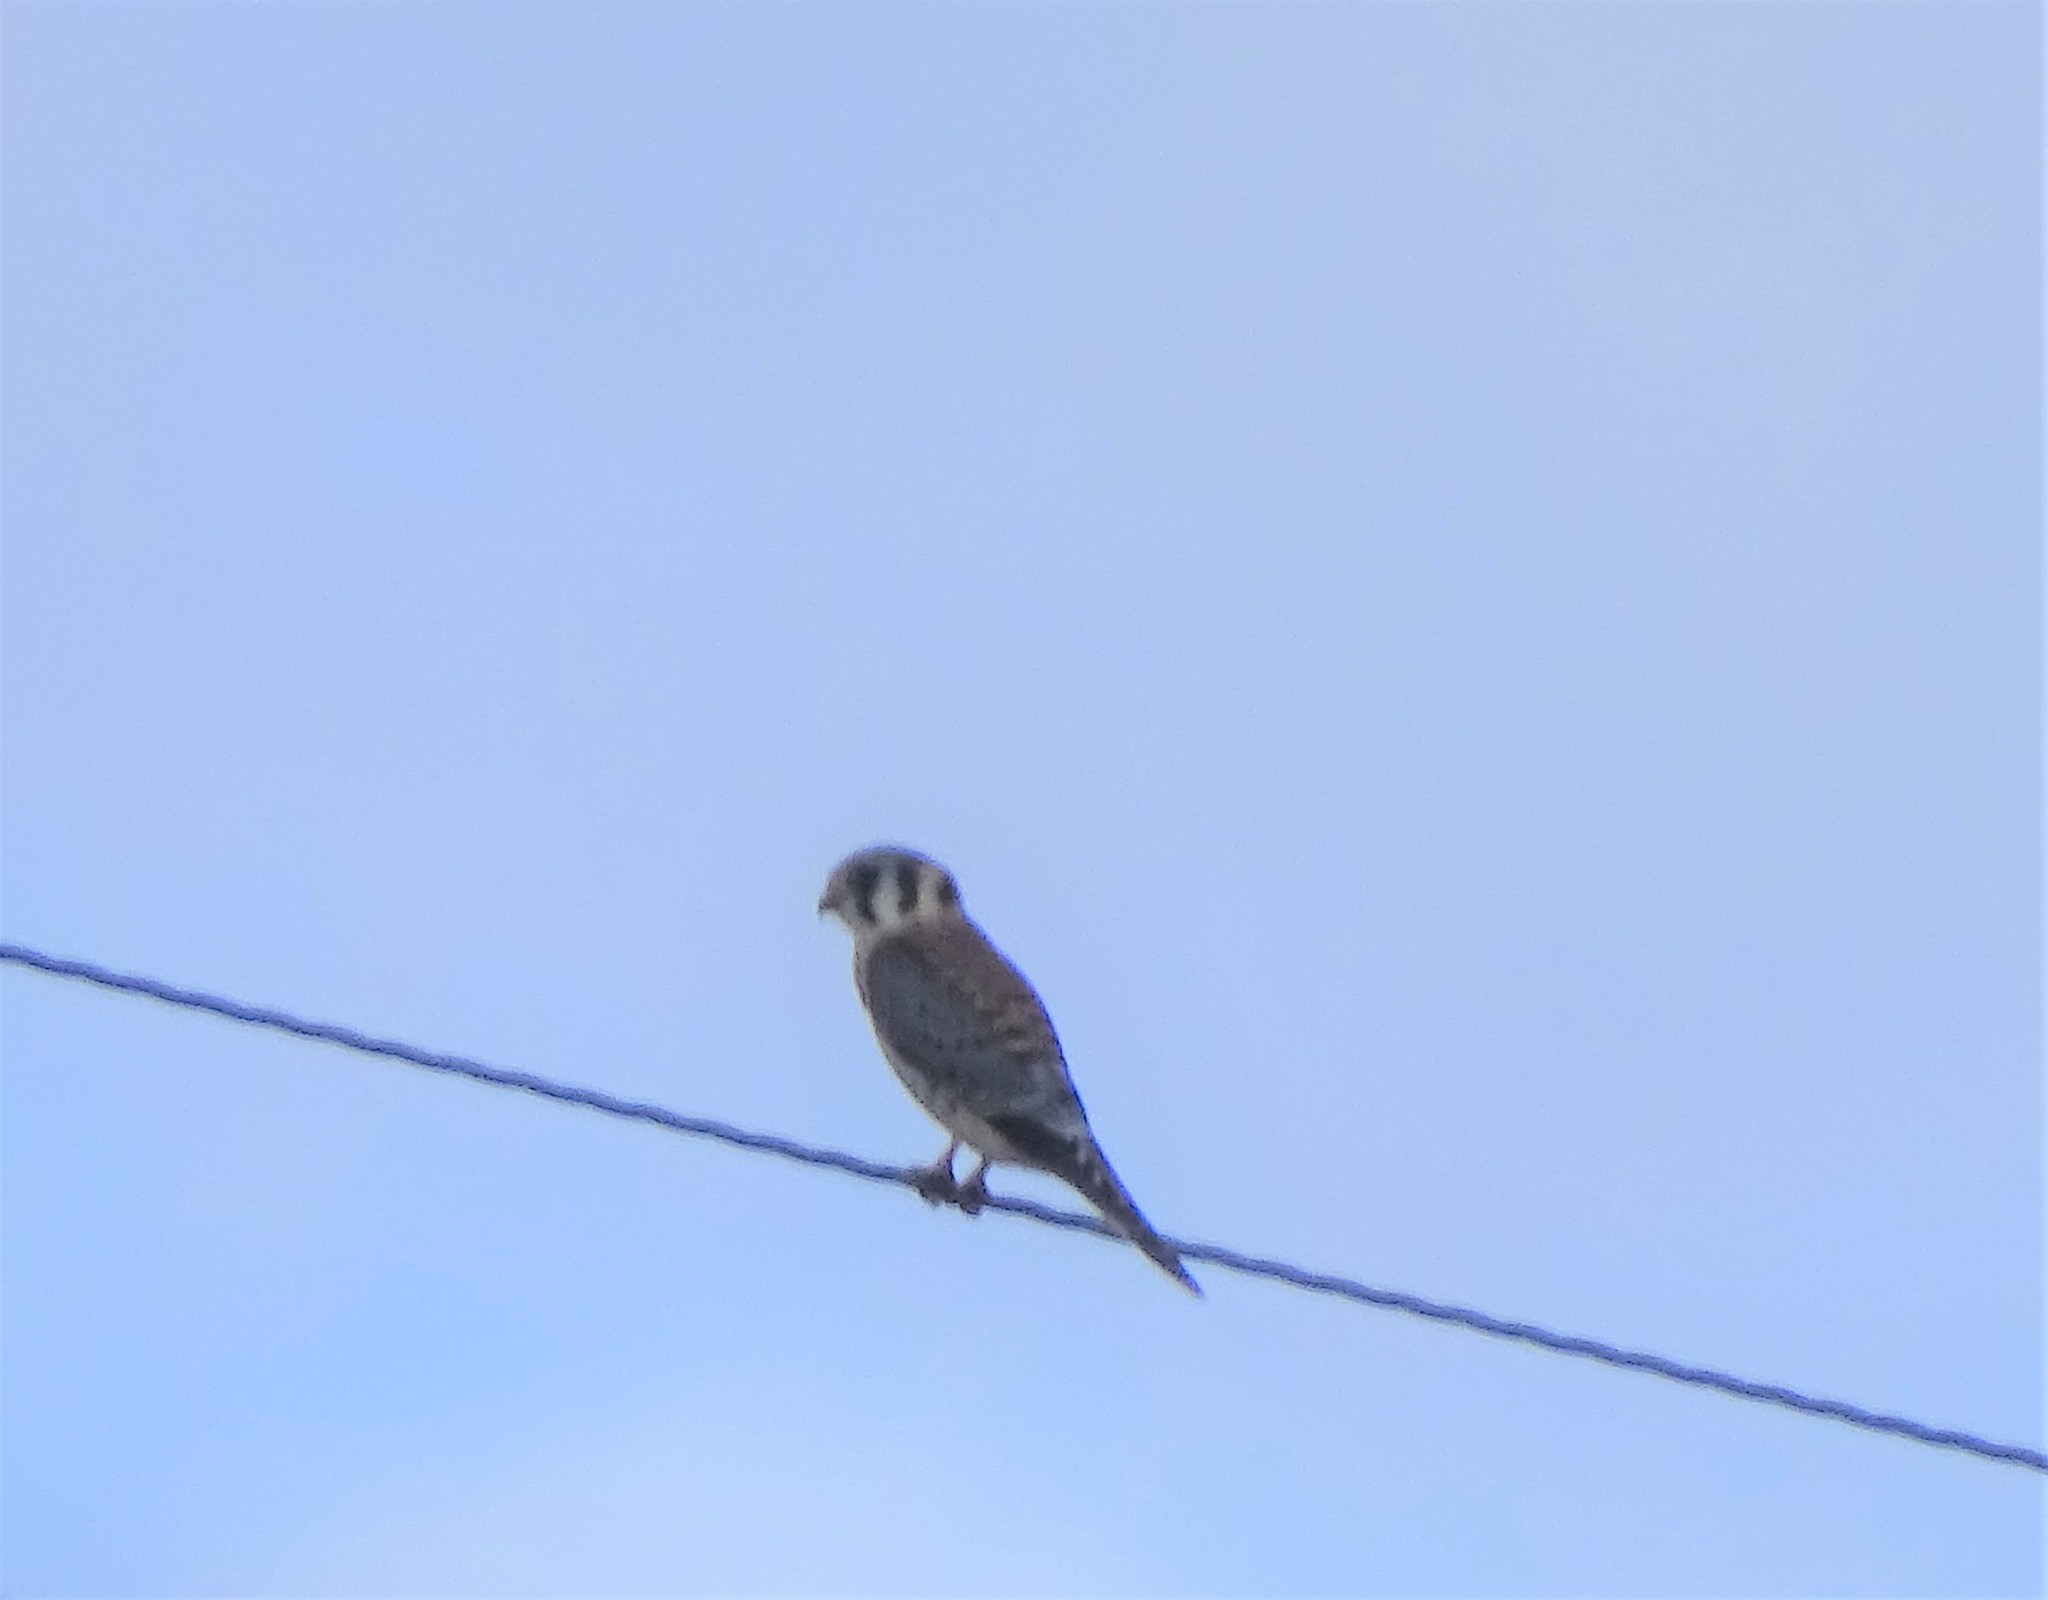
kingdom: Animalia
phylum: Chordata
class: Aves
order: Falconiformes
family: Falconidae
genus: Falco
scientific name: Falco sparverius
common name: American kestrel
